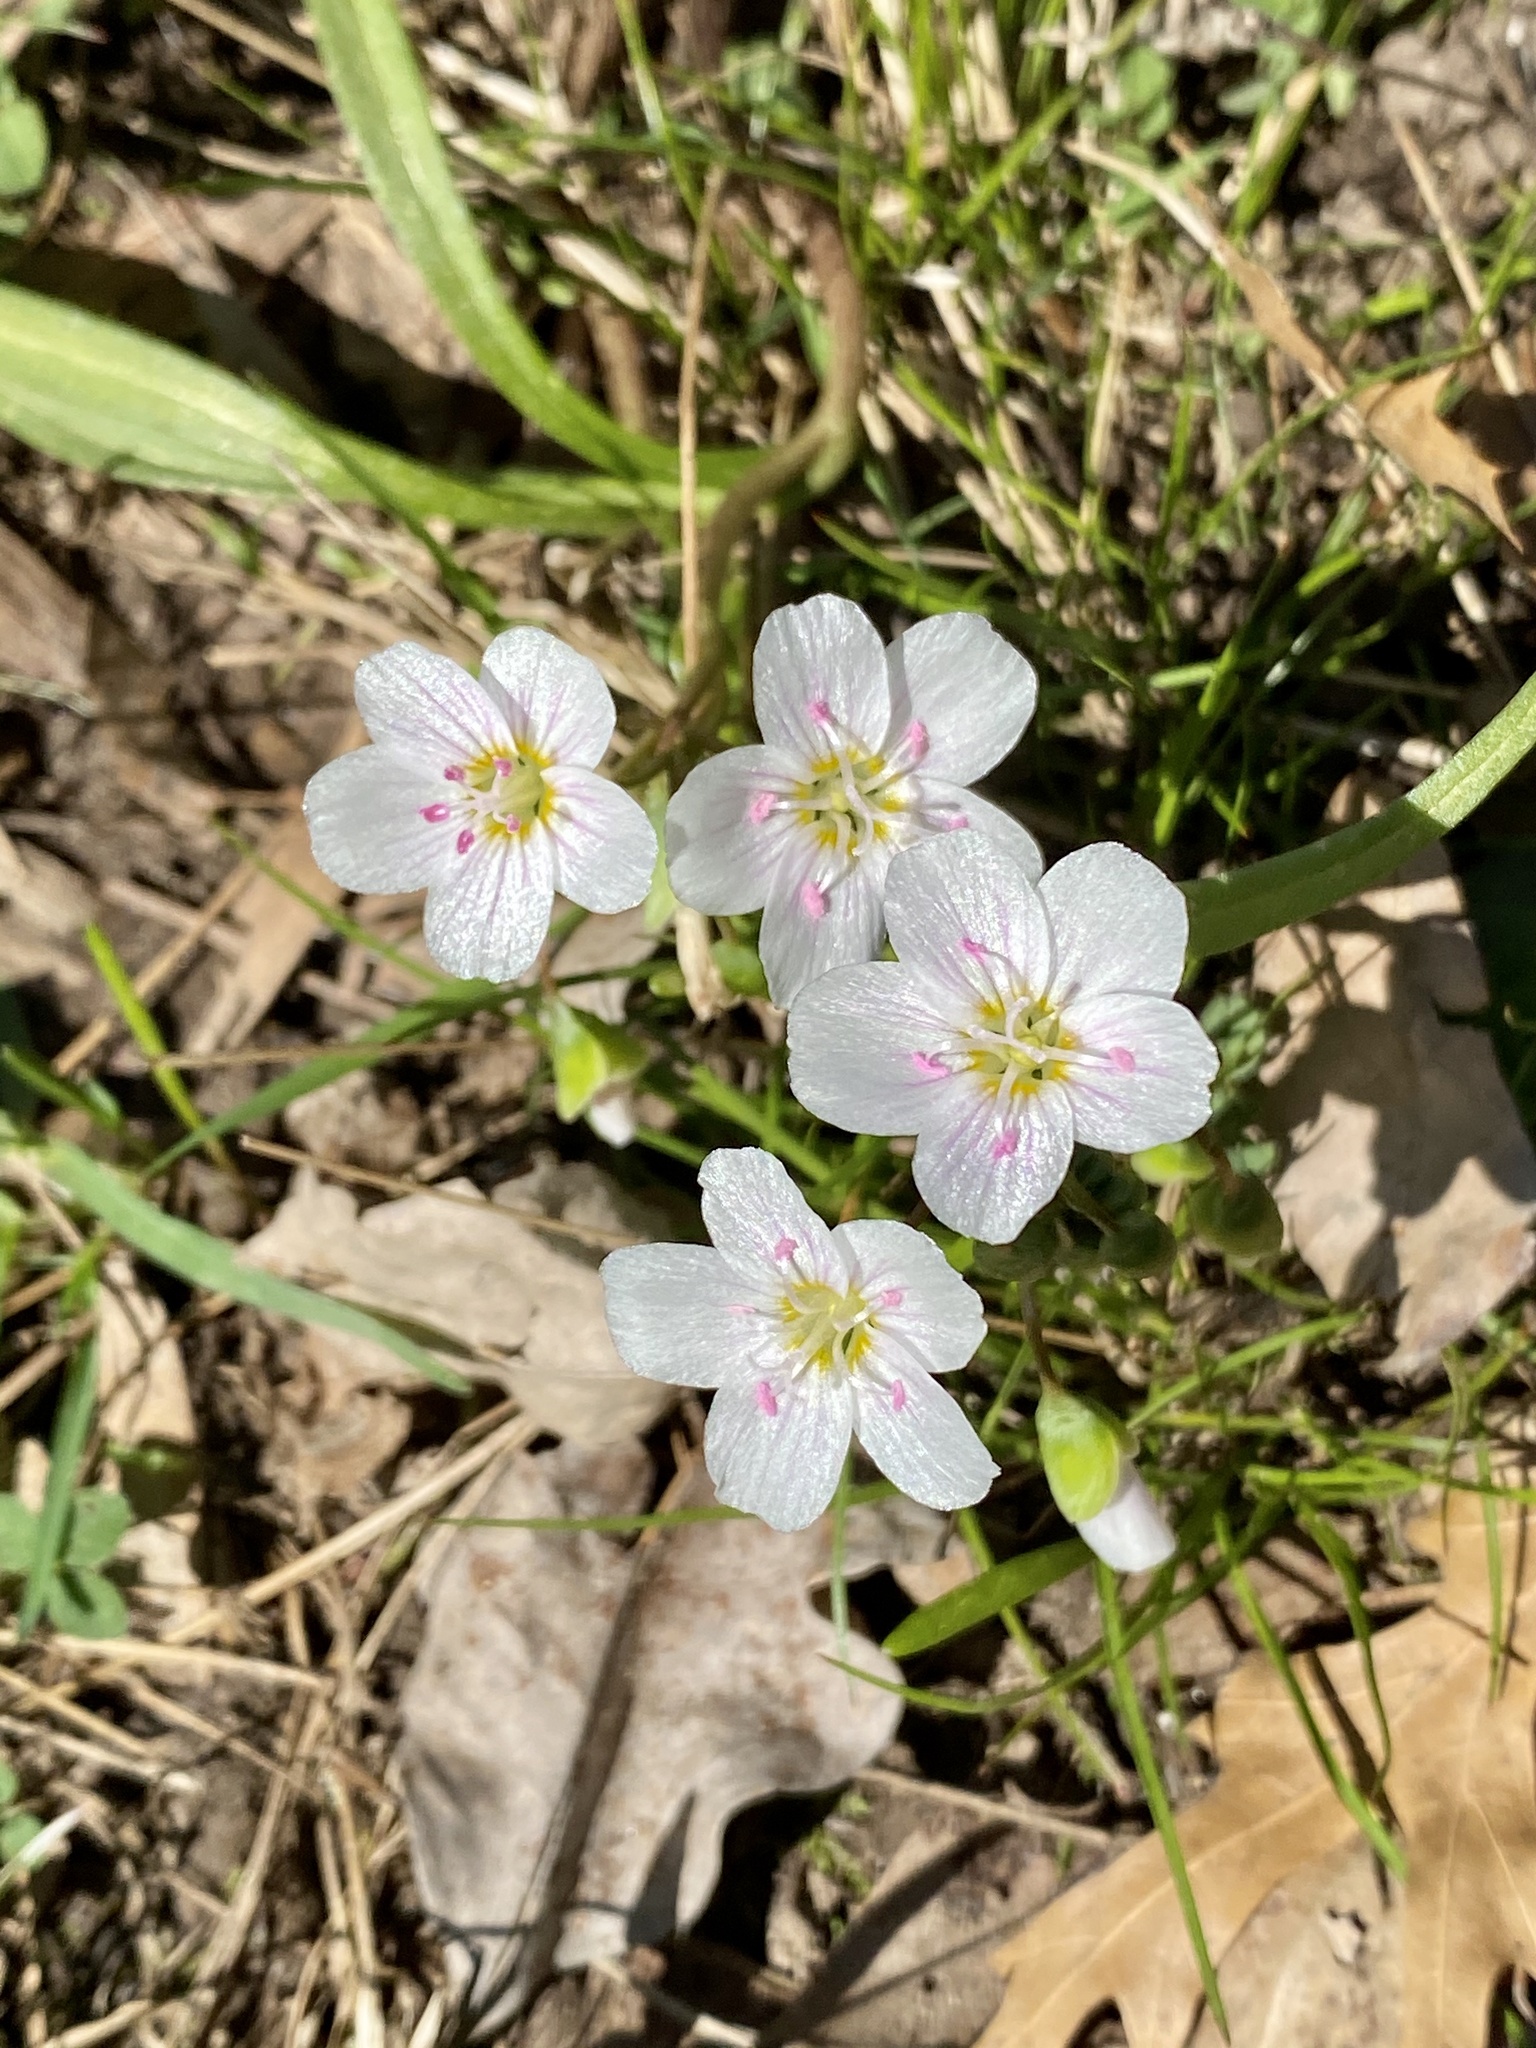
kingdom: Plantae
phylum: Tracheophyta
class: Magnoliopsida
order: Caryophyllales
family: Montiaceae
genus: Claytonia
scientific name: Claytonia virginica
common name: Virginia springbeauty
